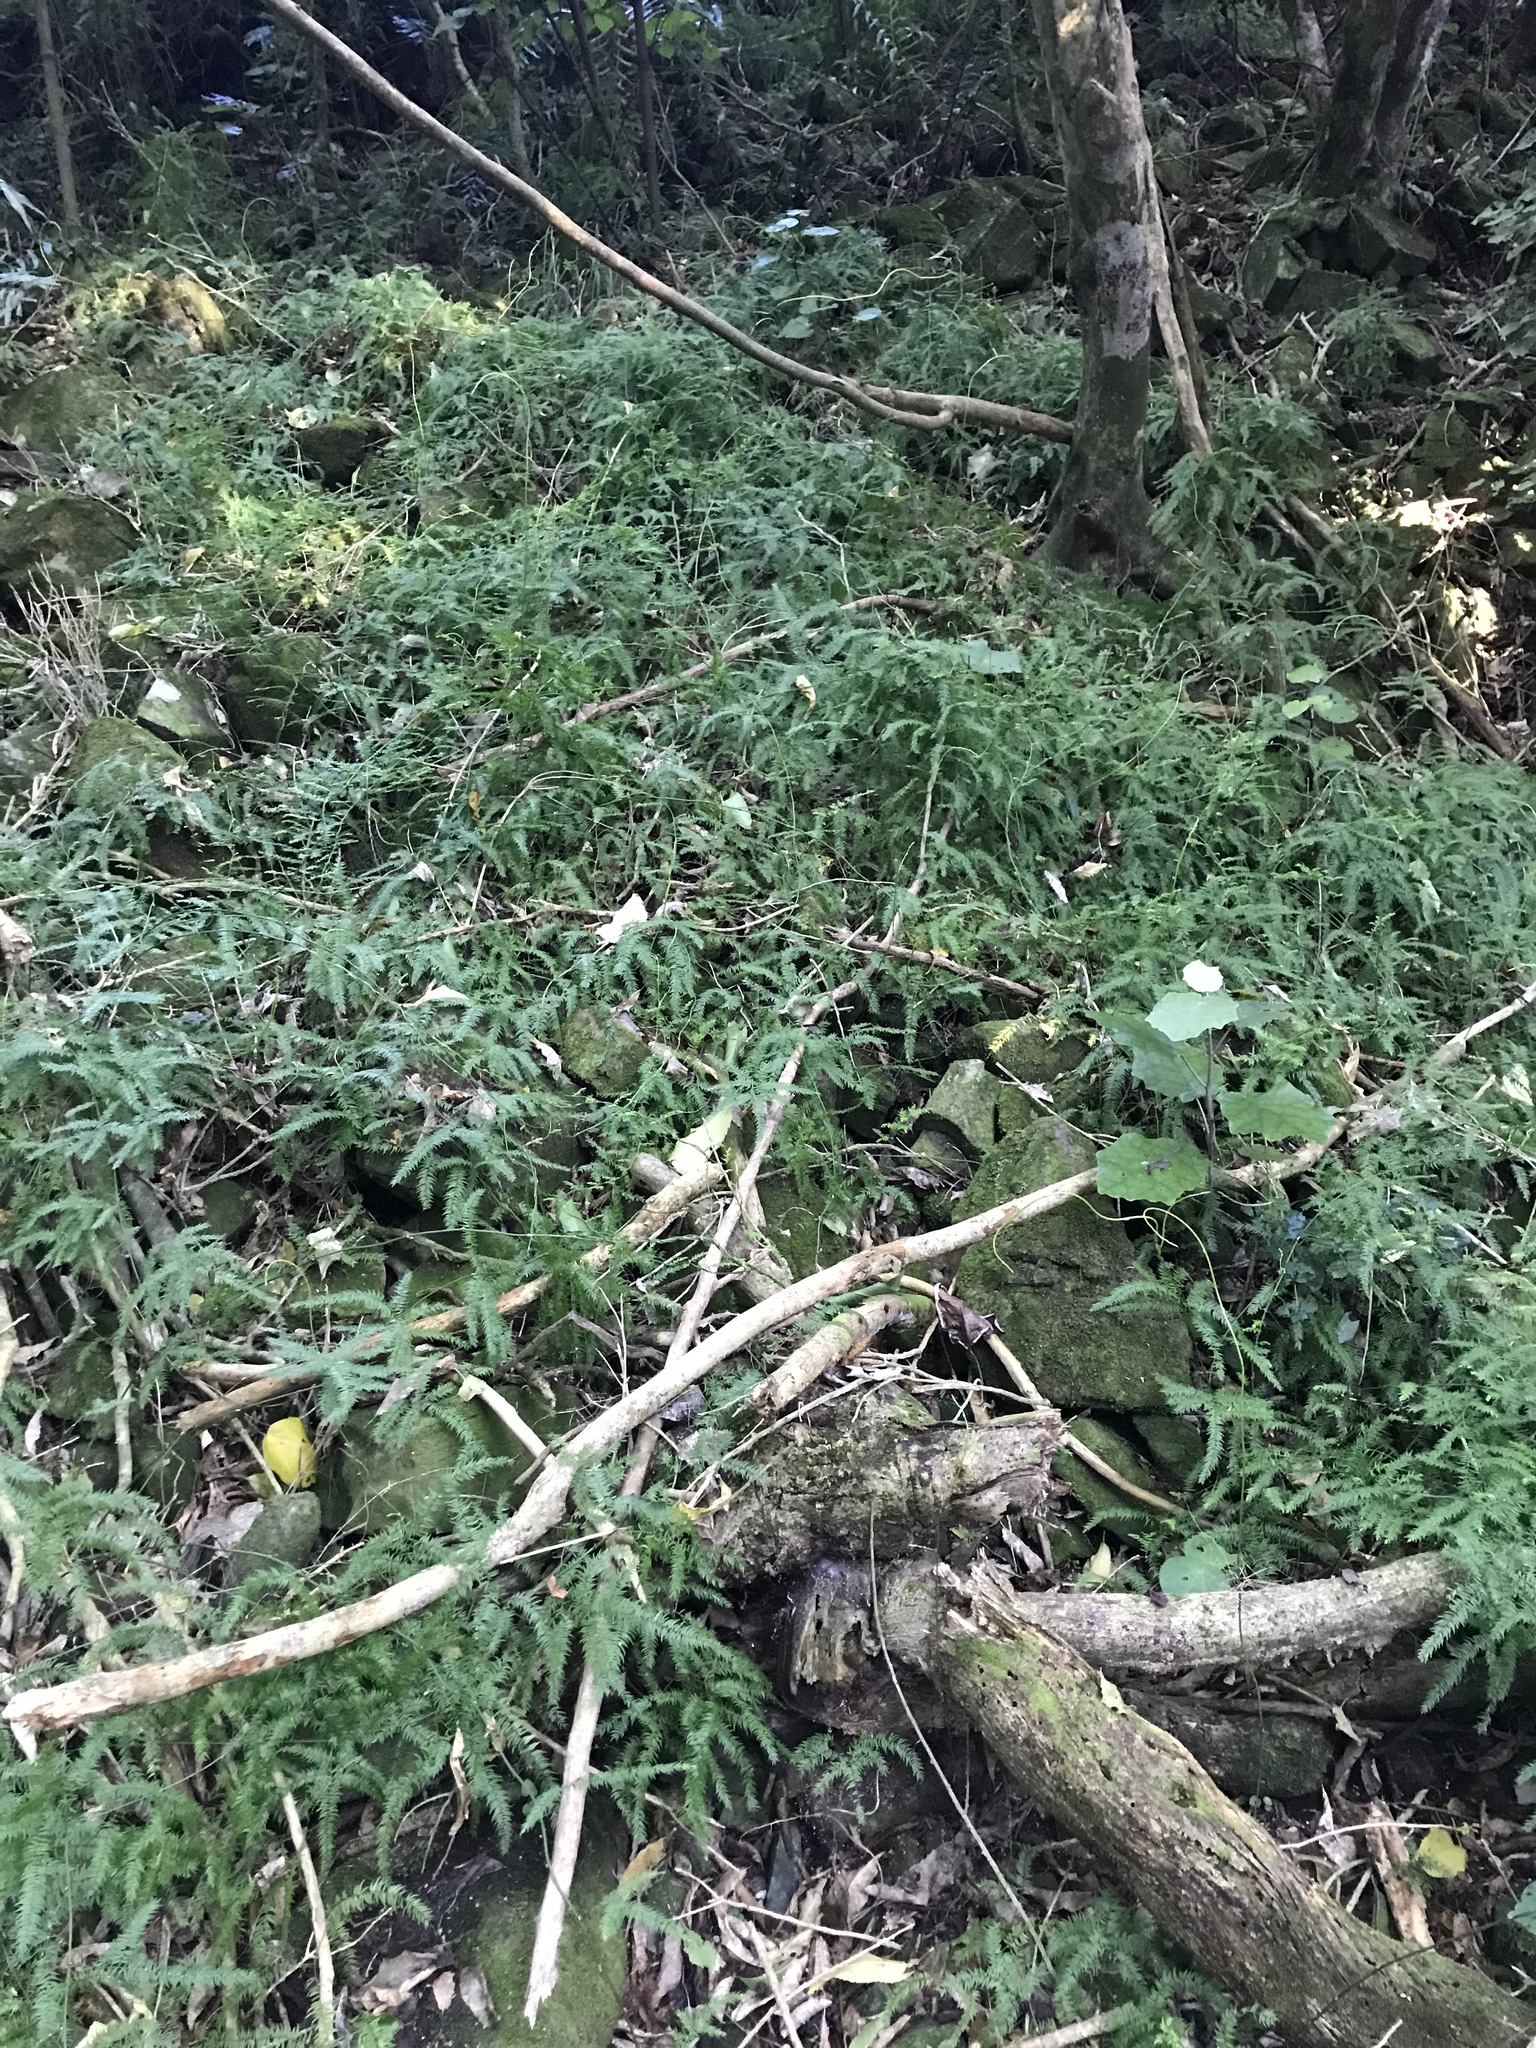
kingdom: Plantae
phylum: Tracheophyta
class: Liliopsida
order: Asparagales
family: Asparagaceae
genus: Asparagus
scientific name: Asparagus scandens
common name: Asparagus-fern
